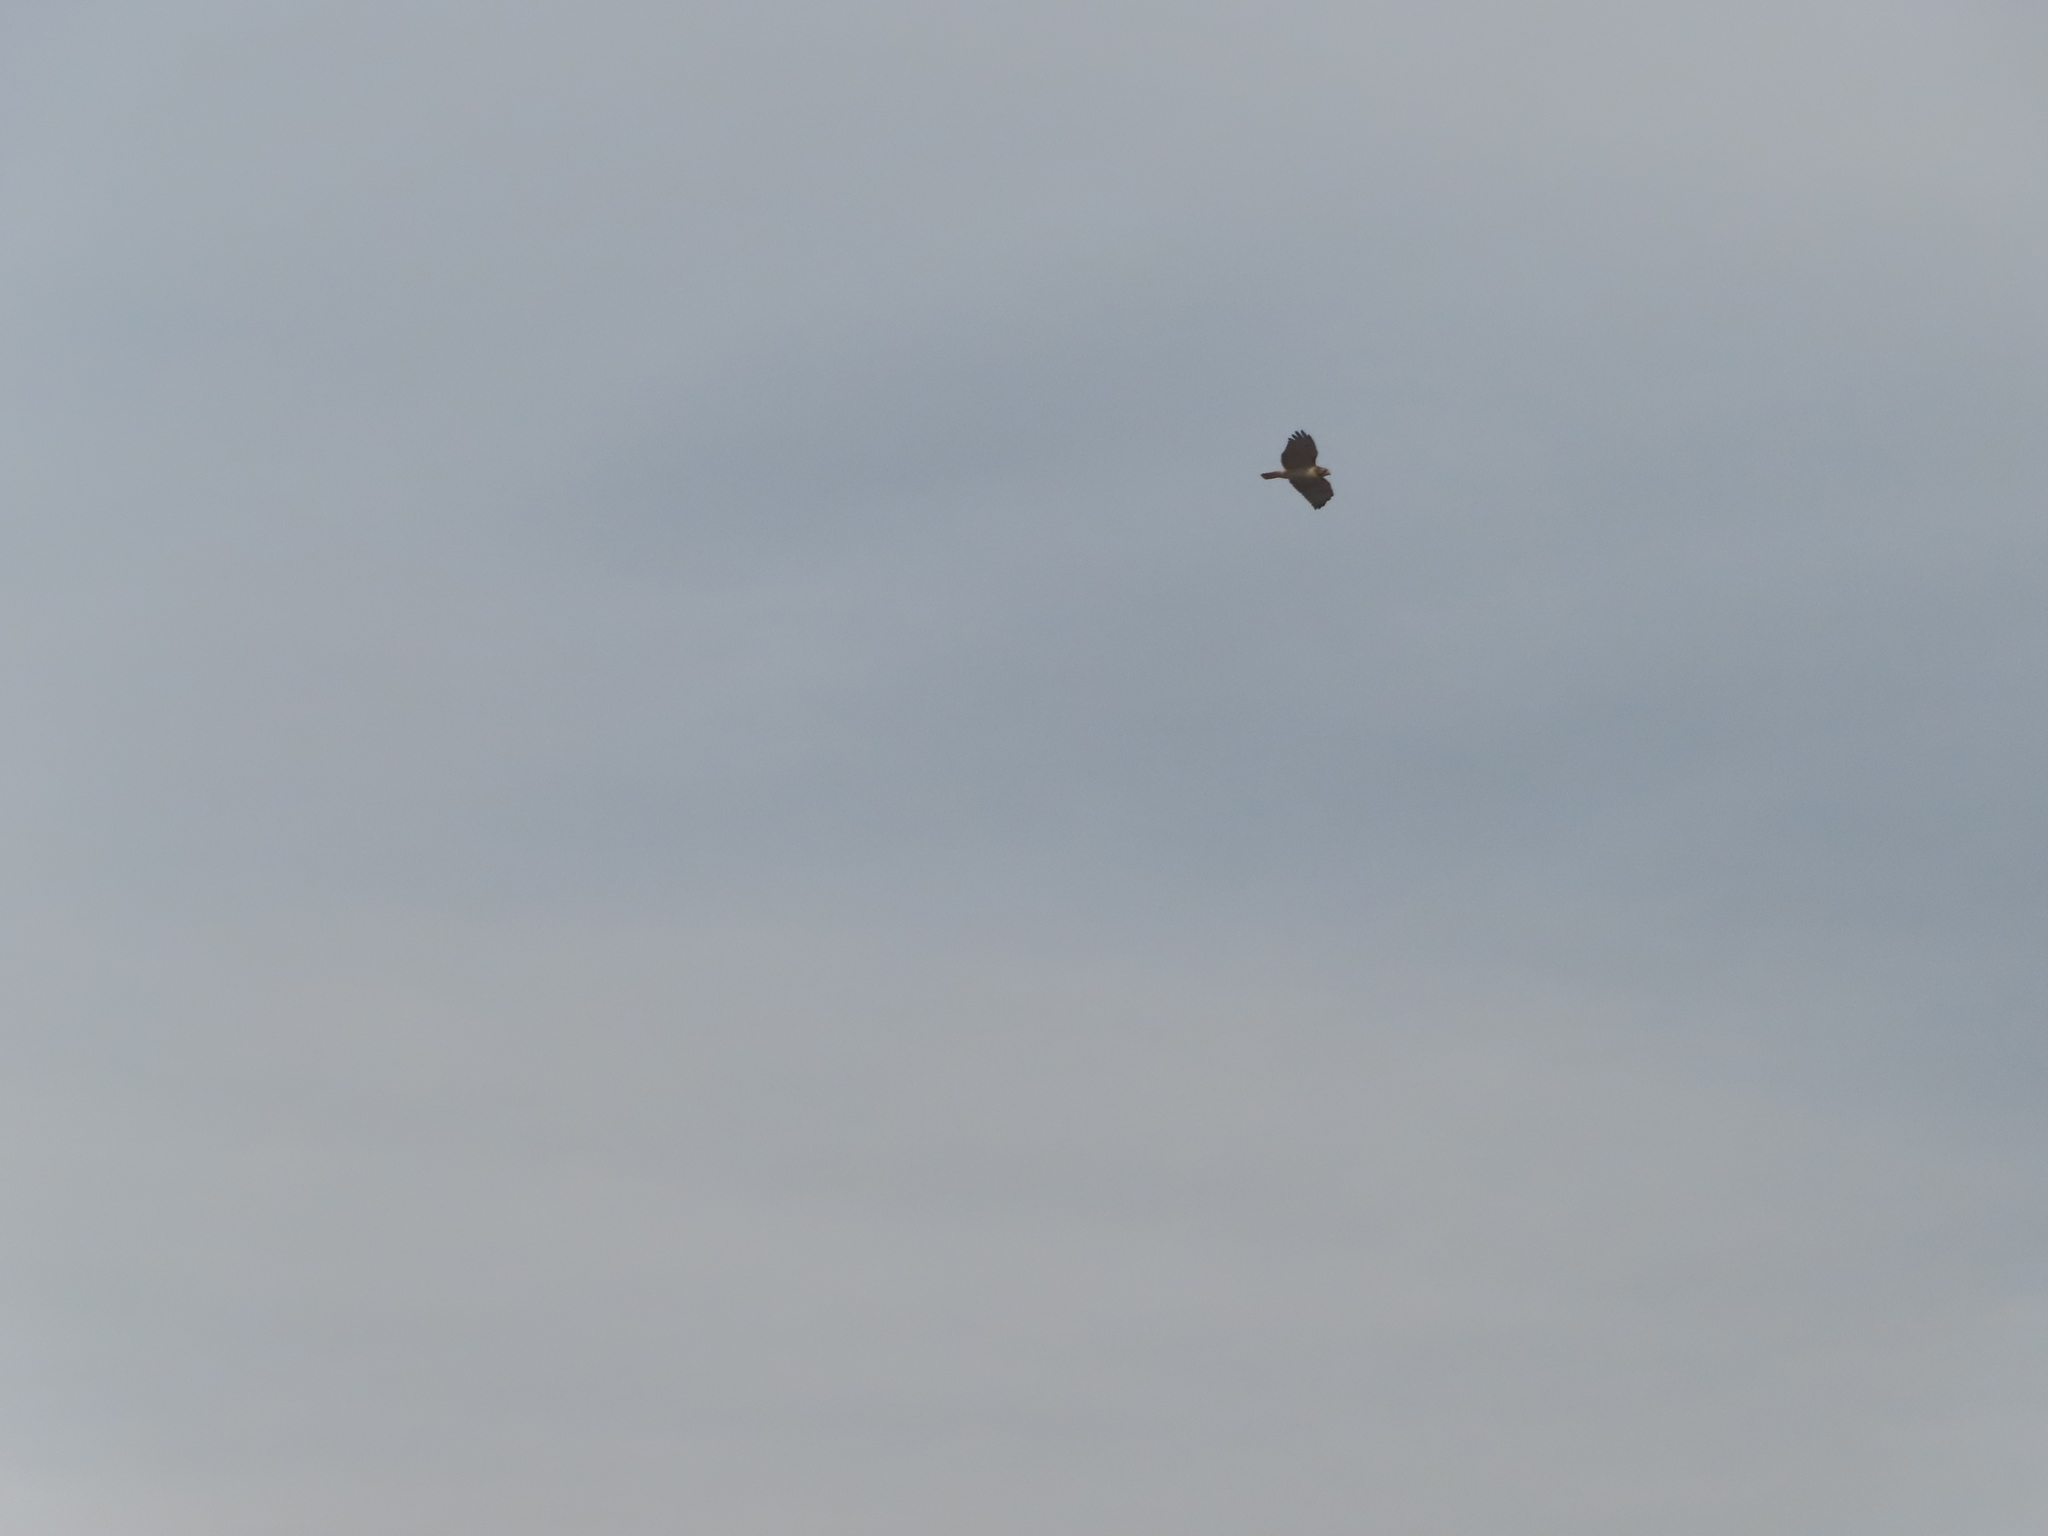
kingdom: Animalia
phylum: Chordata
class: Aves
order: Accipitriformes
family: Accipitridae
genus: Buteo
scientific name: Buteo jamaicensis
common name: Red-tailed hawk
